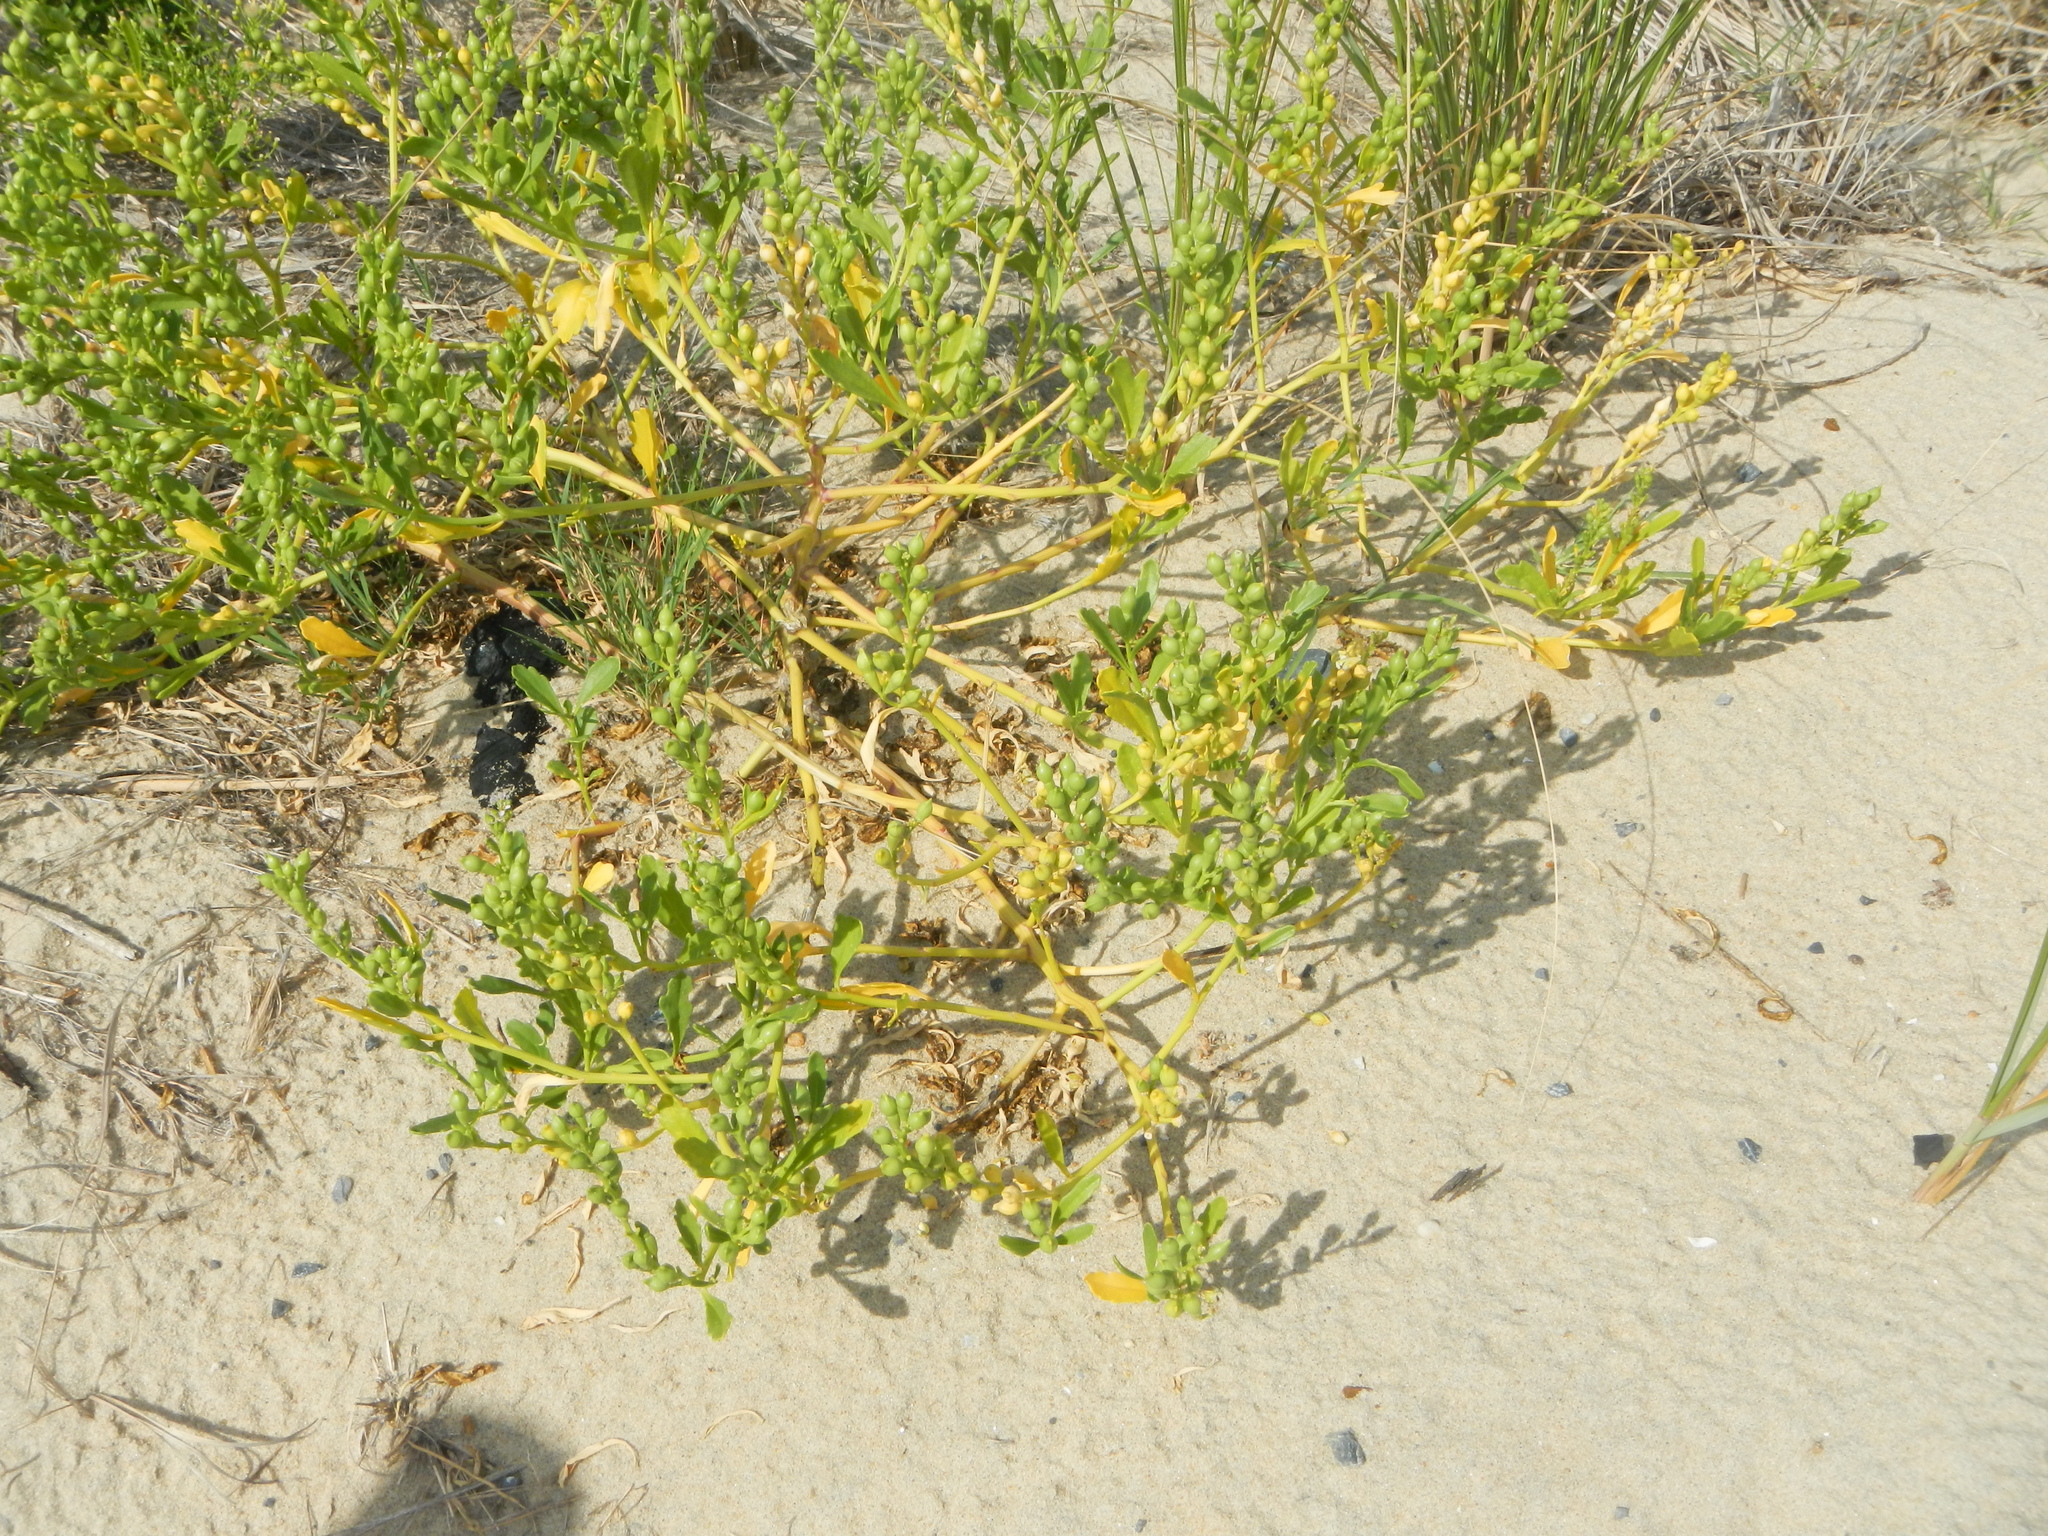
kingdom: Plantae
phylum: Tracheophyta
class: Magnoliopsida
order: Brassicales
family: Brassicaceae
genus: Cakile
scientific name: Cakile edentula
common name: American sea rocket
